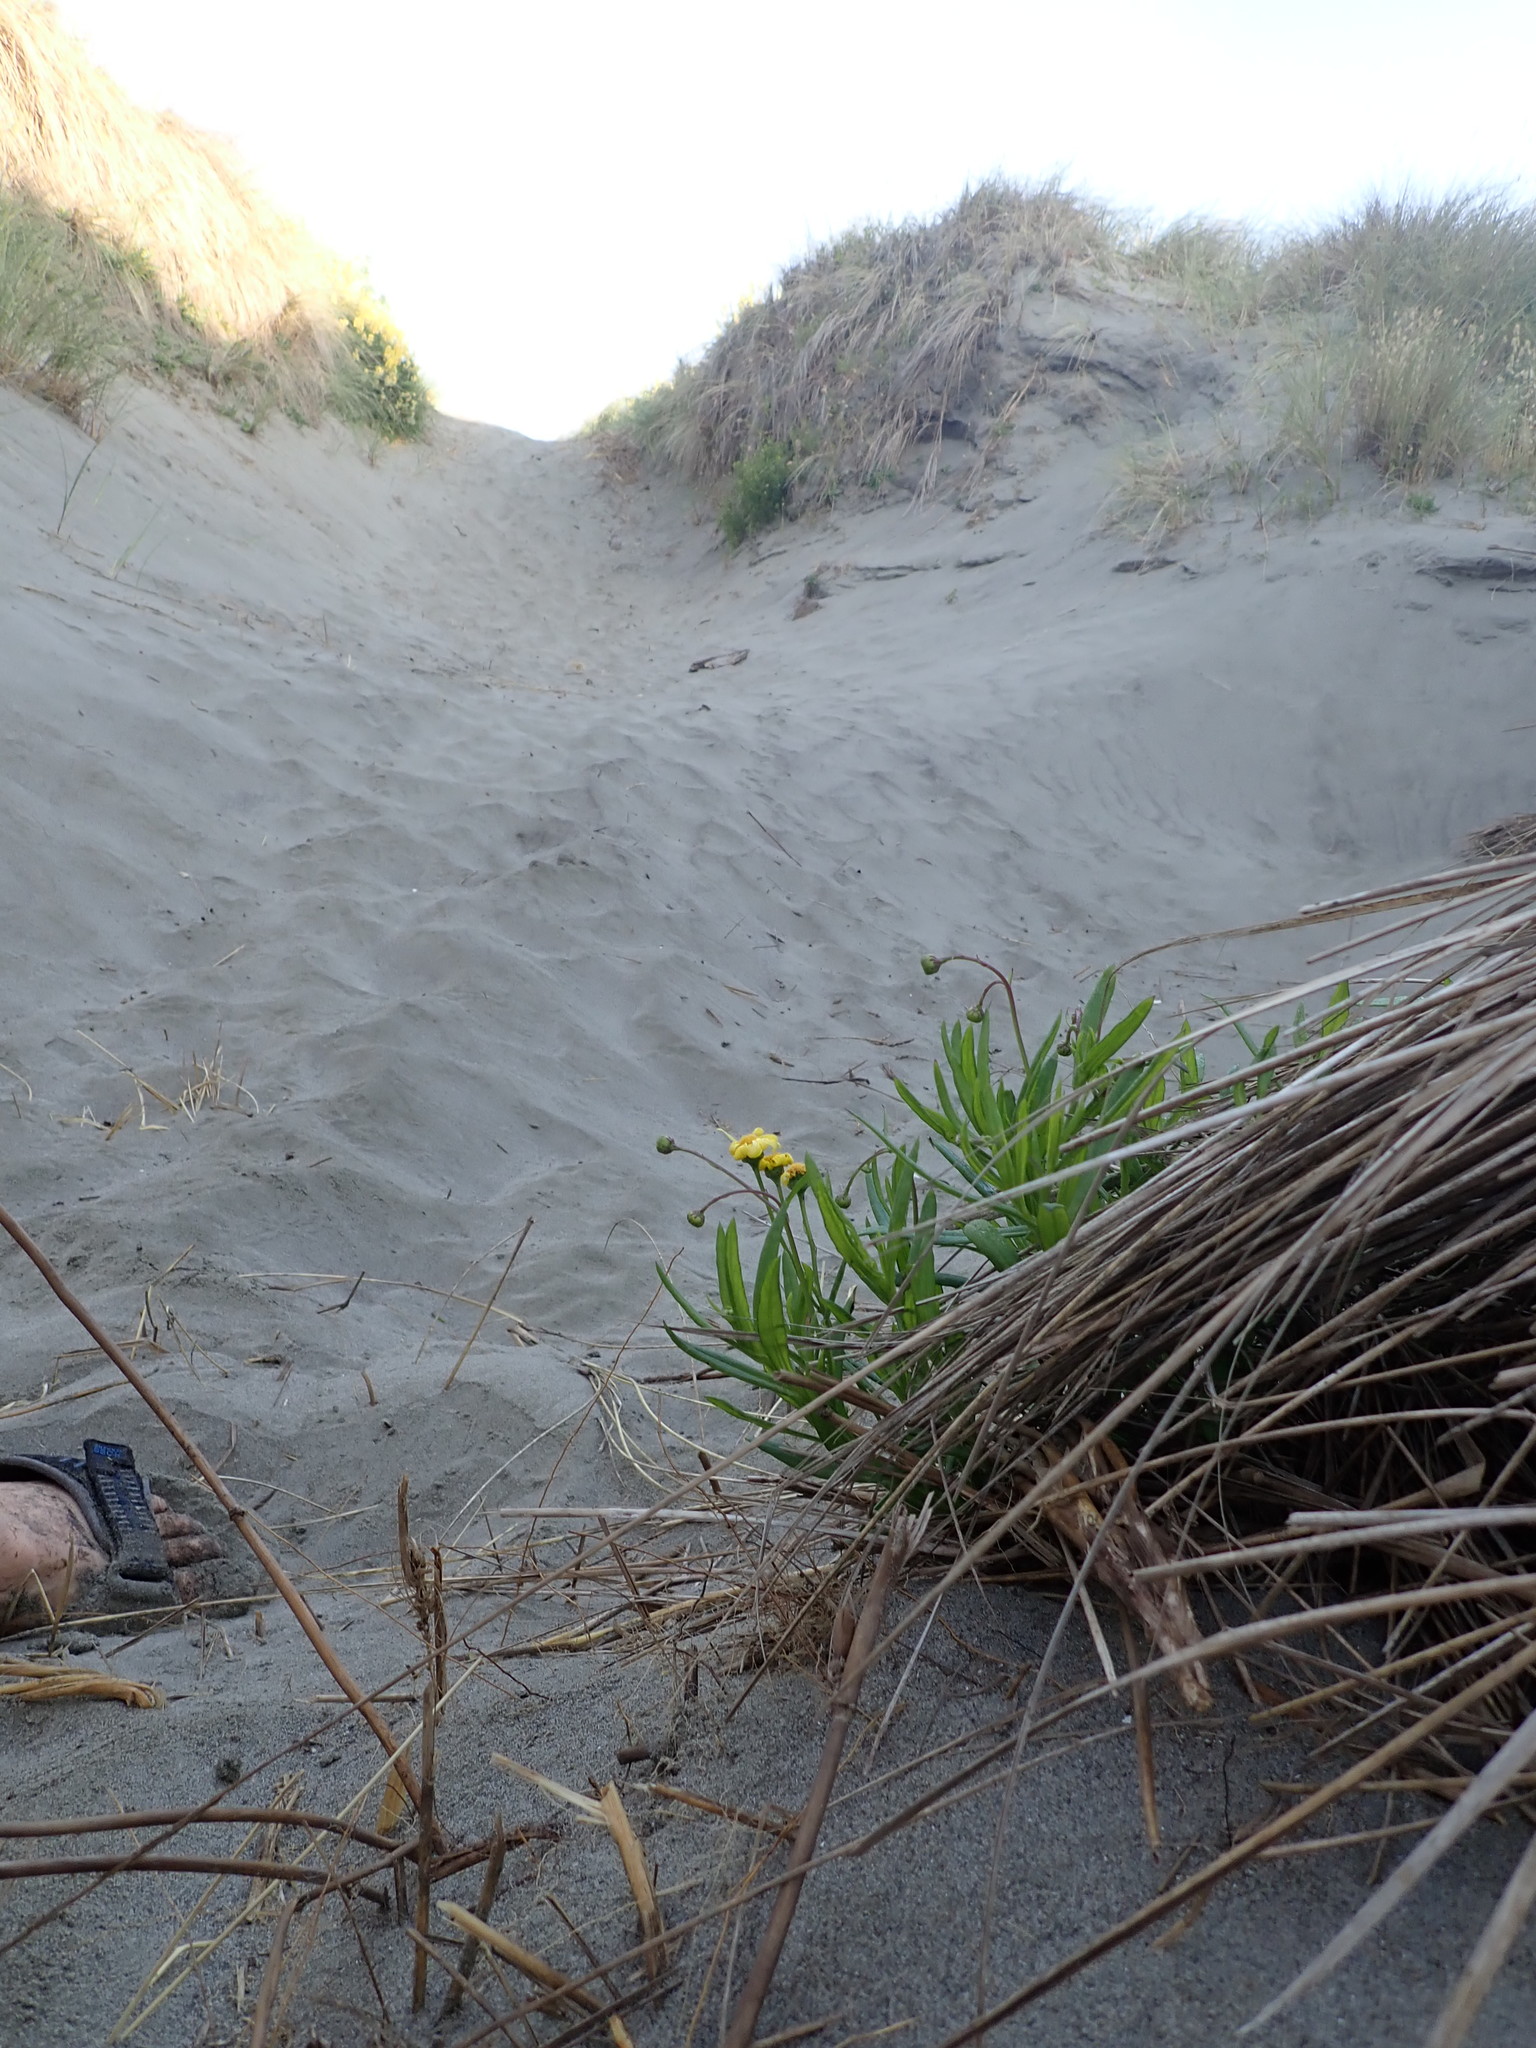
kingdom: Plantae
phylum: Tracheophyta
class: Magnoliopsida
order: Asterales
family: Asteraceae
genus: Senecio
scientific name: Senecio skirrhodon
